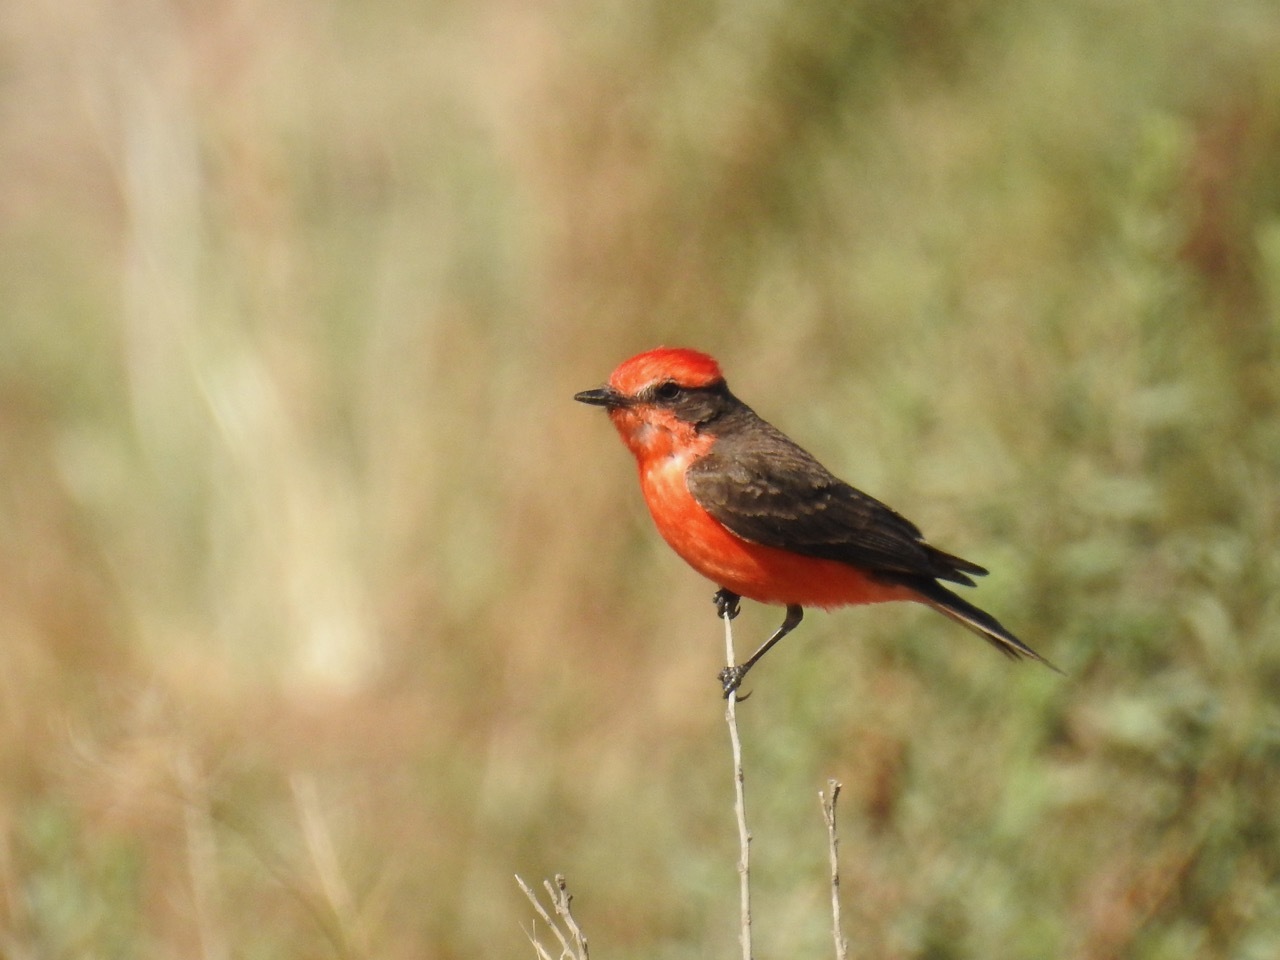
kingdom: Animalia
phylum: Chordata
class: Aves
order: Passeriformes
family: Tyrannidae
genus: Pyrocephalus
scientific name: Pyrocephalus rubinus
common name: Vermilion flycatcher
